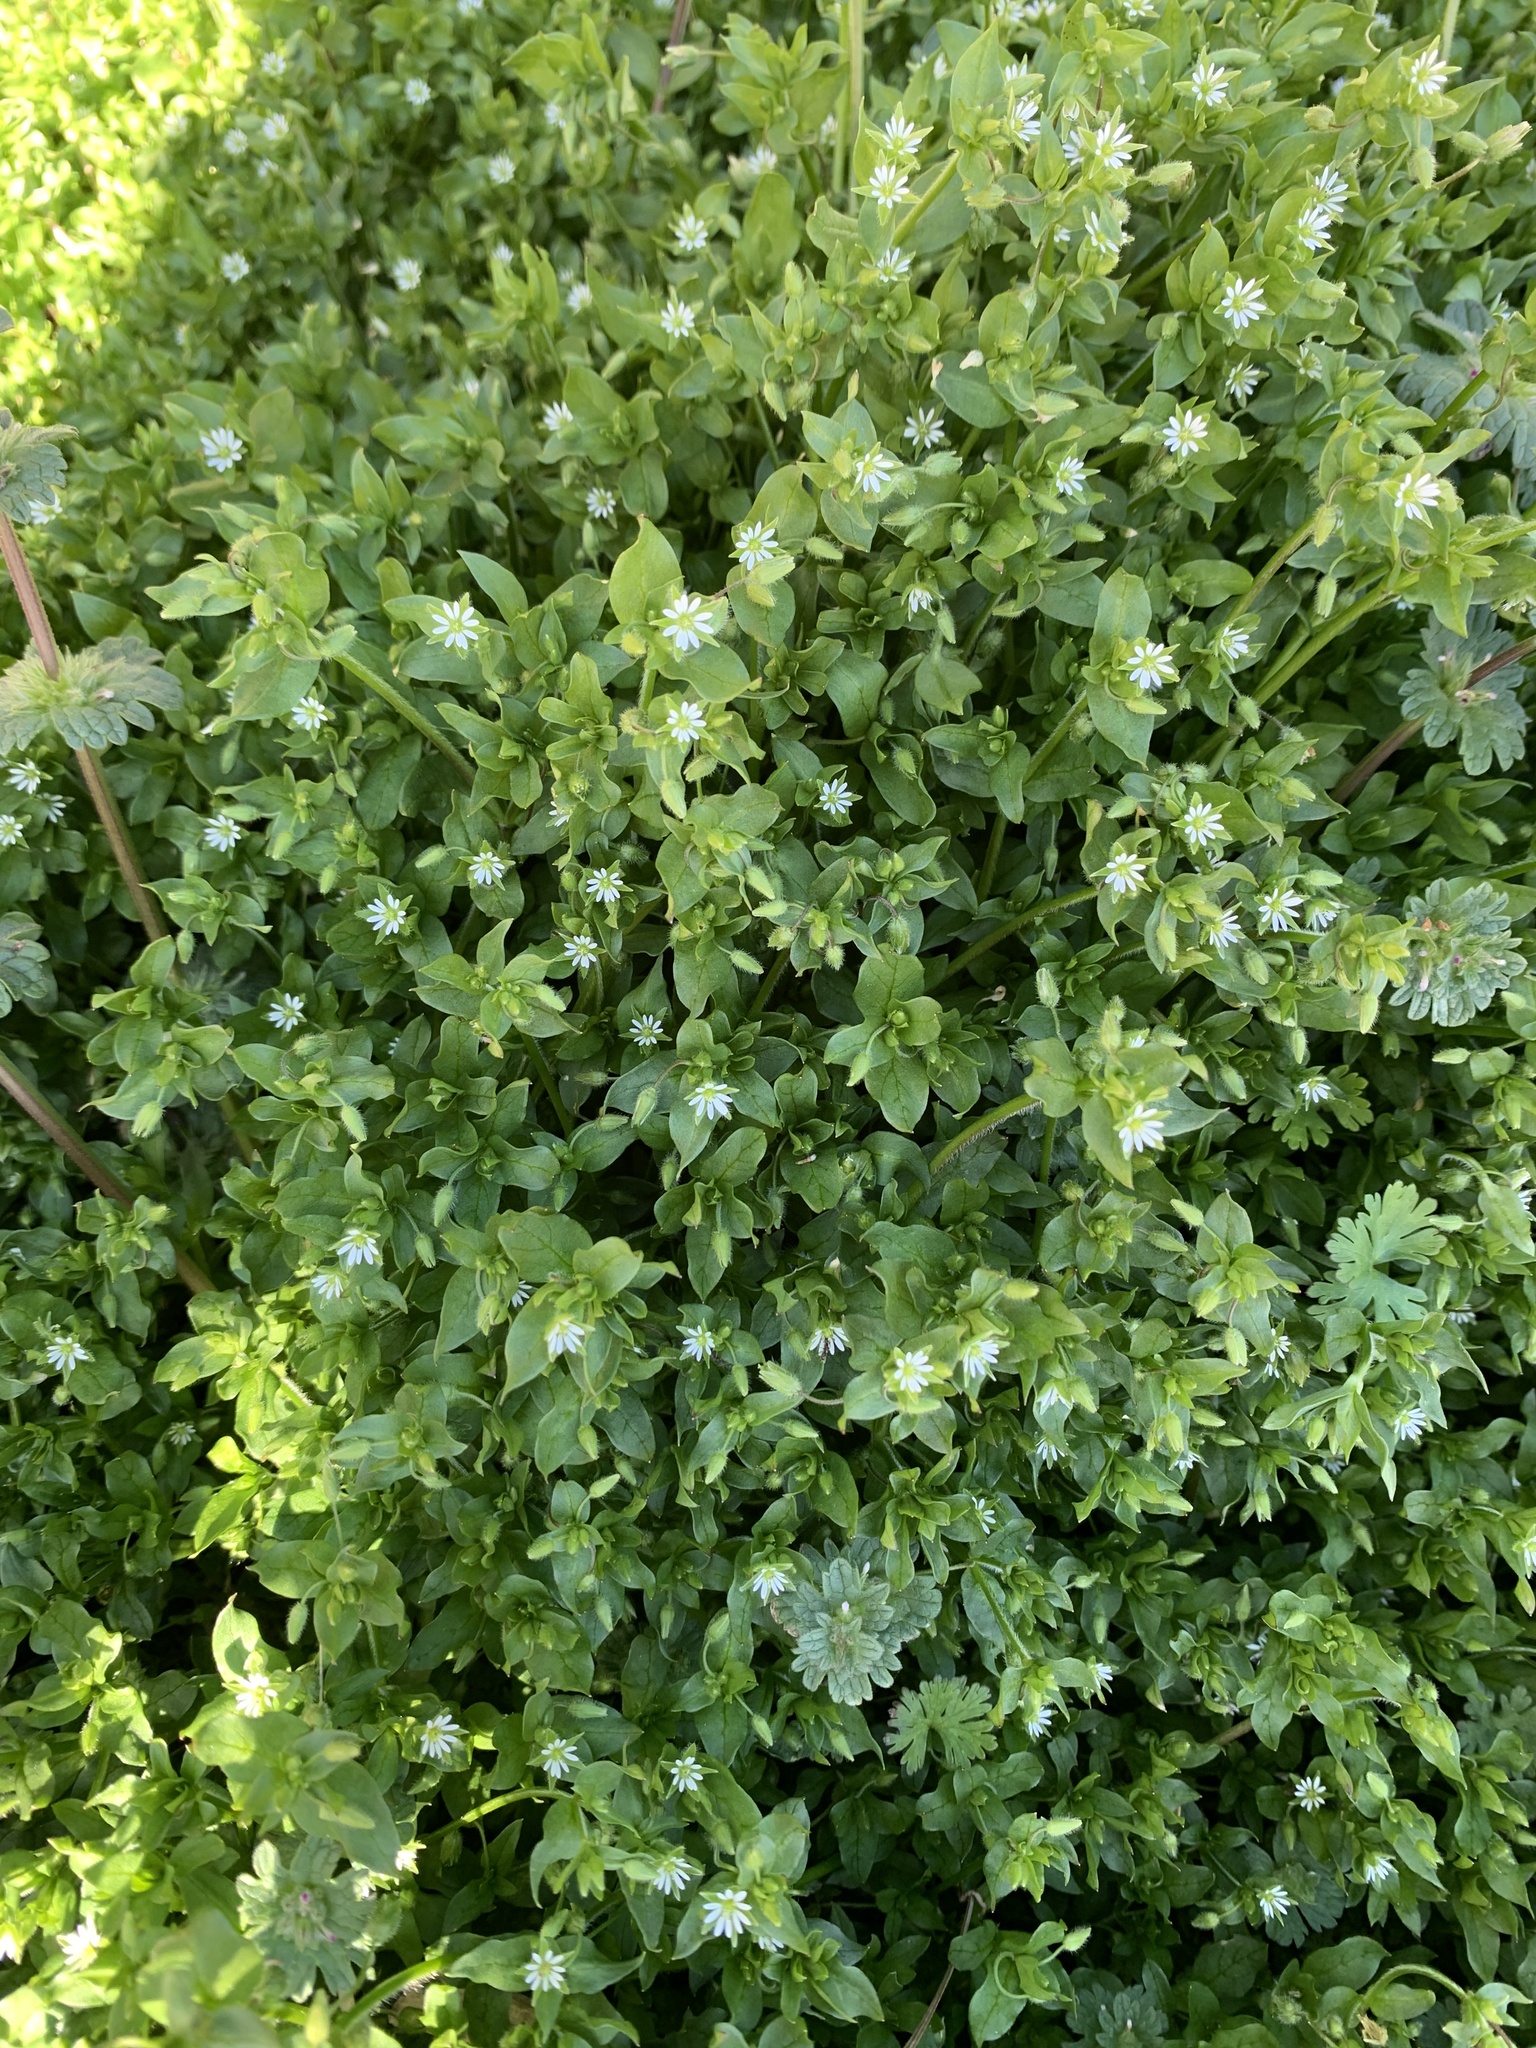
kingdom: Plantae
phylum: Tracheophyta
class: Magnoliopsida
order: Caryophyllales
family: Caryophyllaceae
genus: Stellaria
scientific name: Stellaria media
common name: Common chickweed
